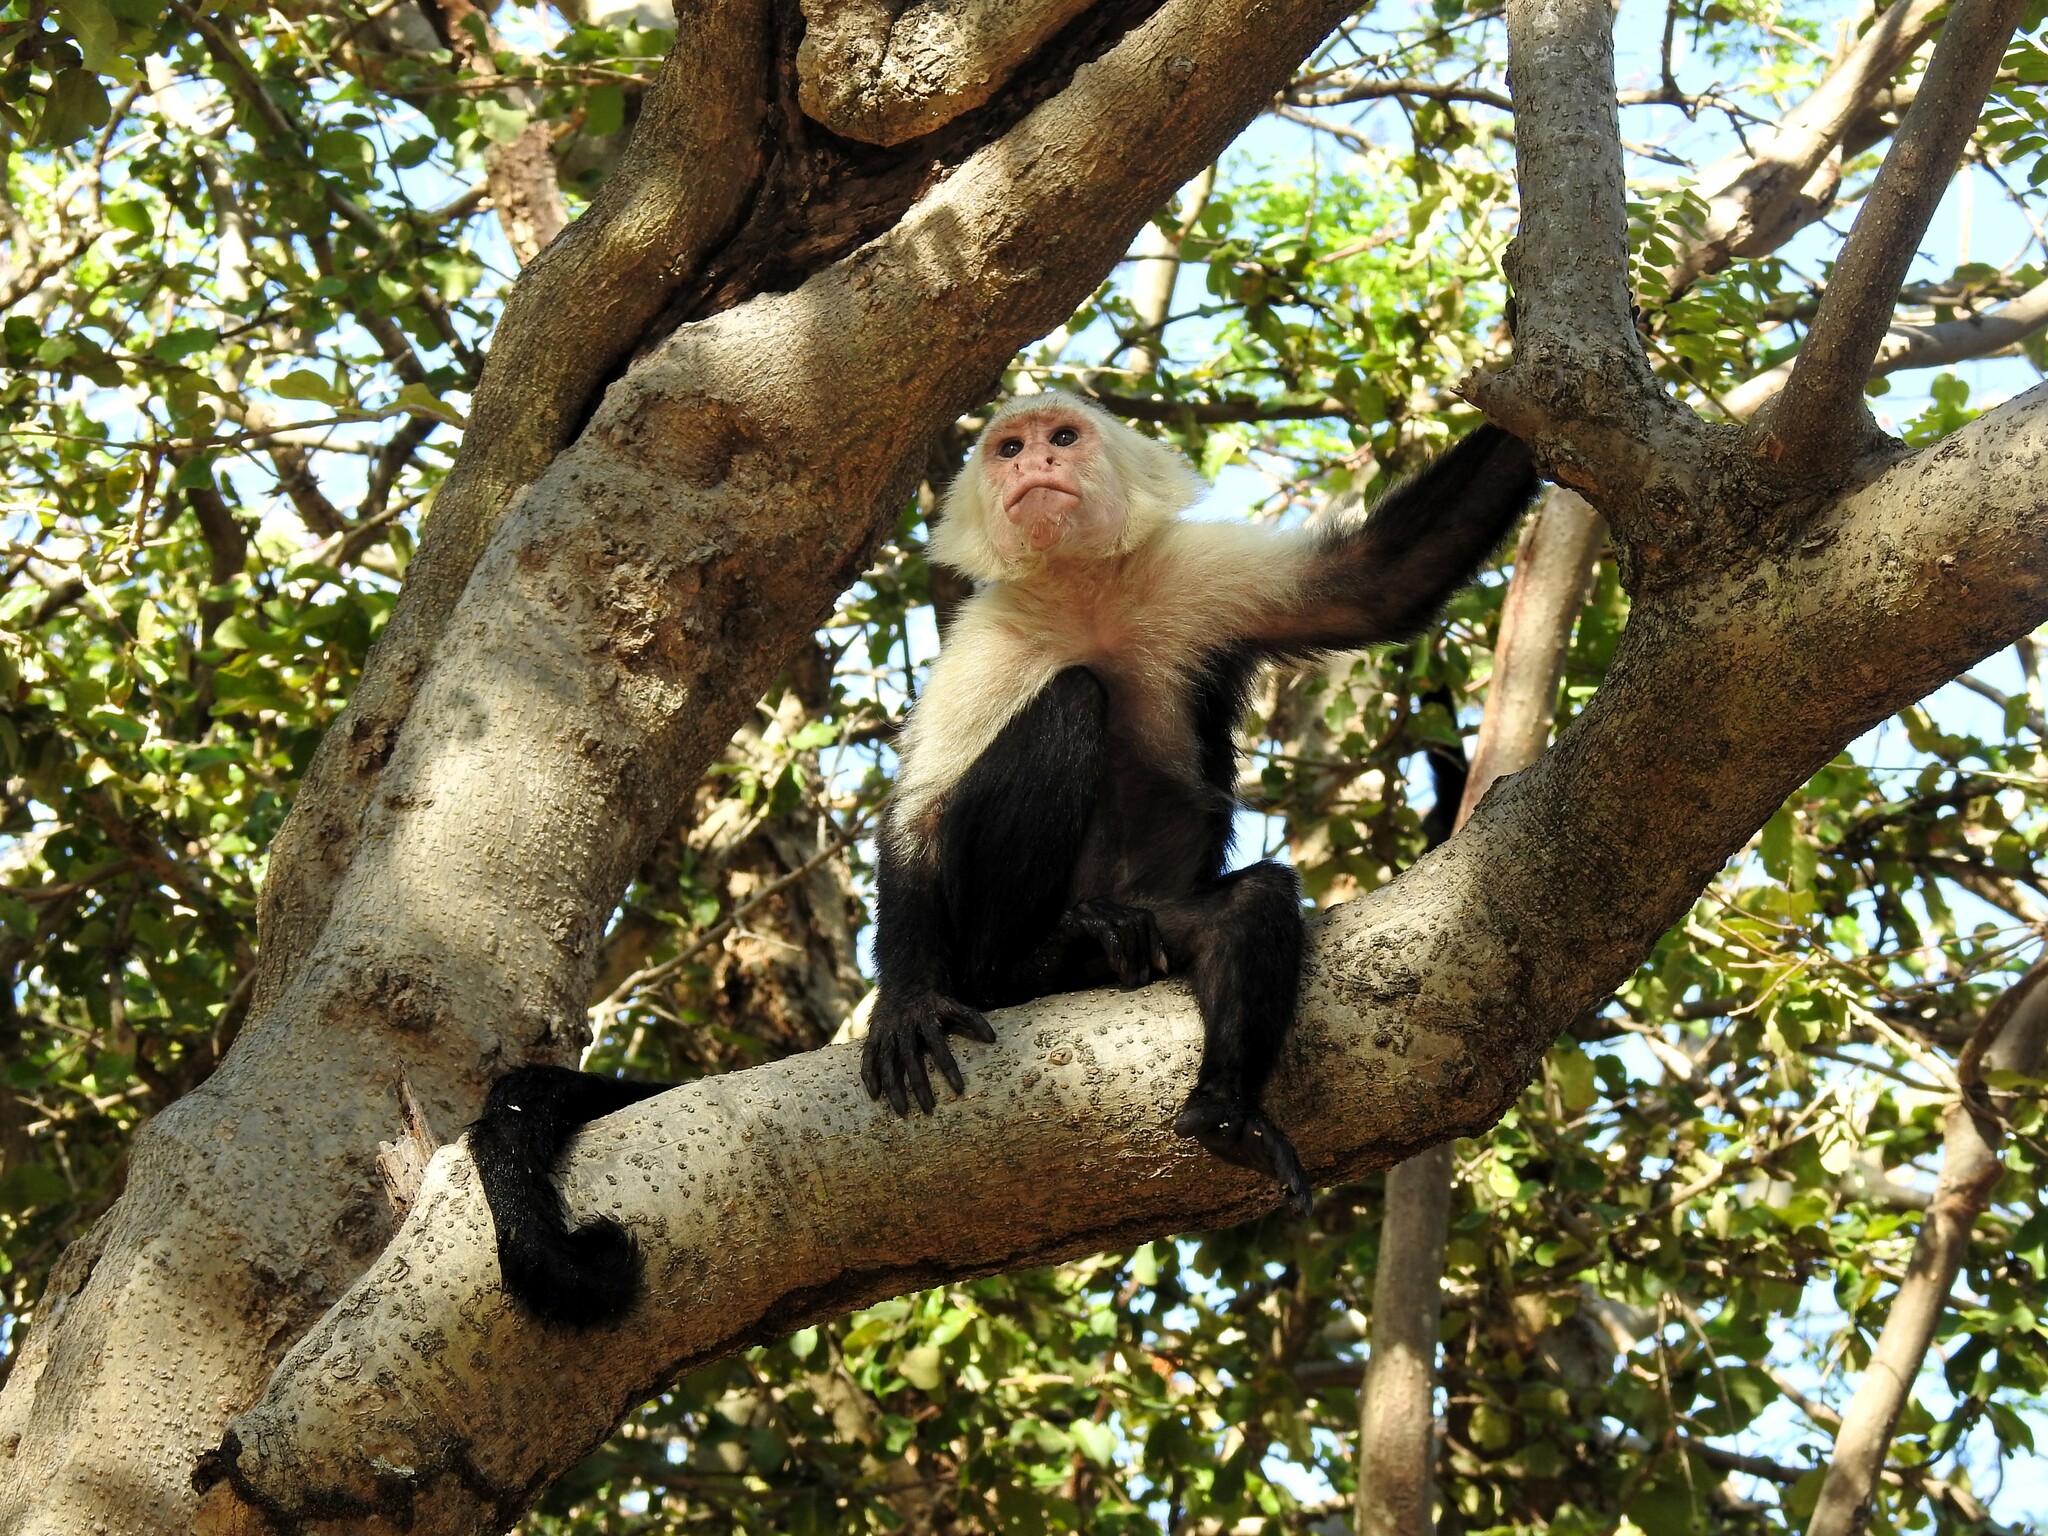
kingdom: Animalia
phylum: Chordata
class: Mammalia
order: Primates
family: Cebidae
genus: Cebus
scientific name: Cebus imitator
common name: Panamanian white-faced capuchin
